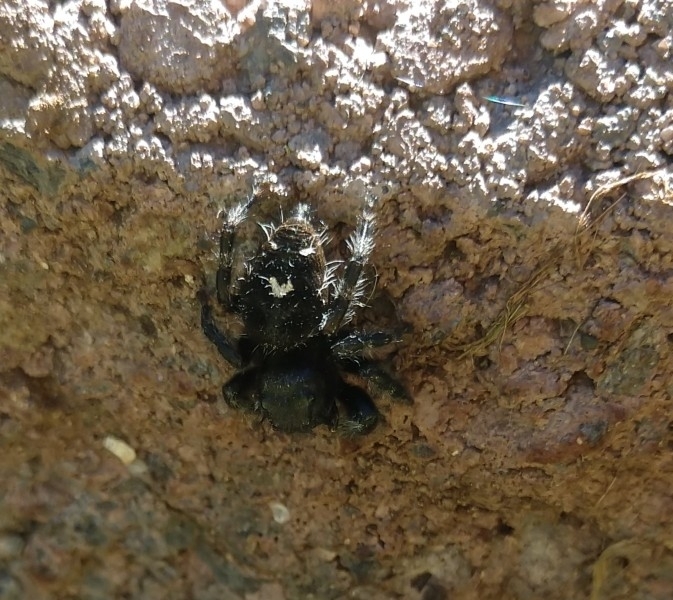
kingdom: Animalia
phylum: Arthropoda
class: Arachnida
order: Araneae
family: Salticidae
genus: Phidippus
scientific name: Phidippus audax
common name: Bold jumper
